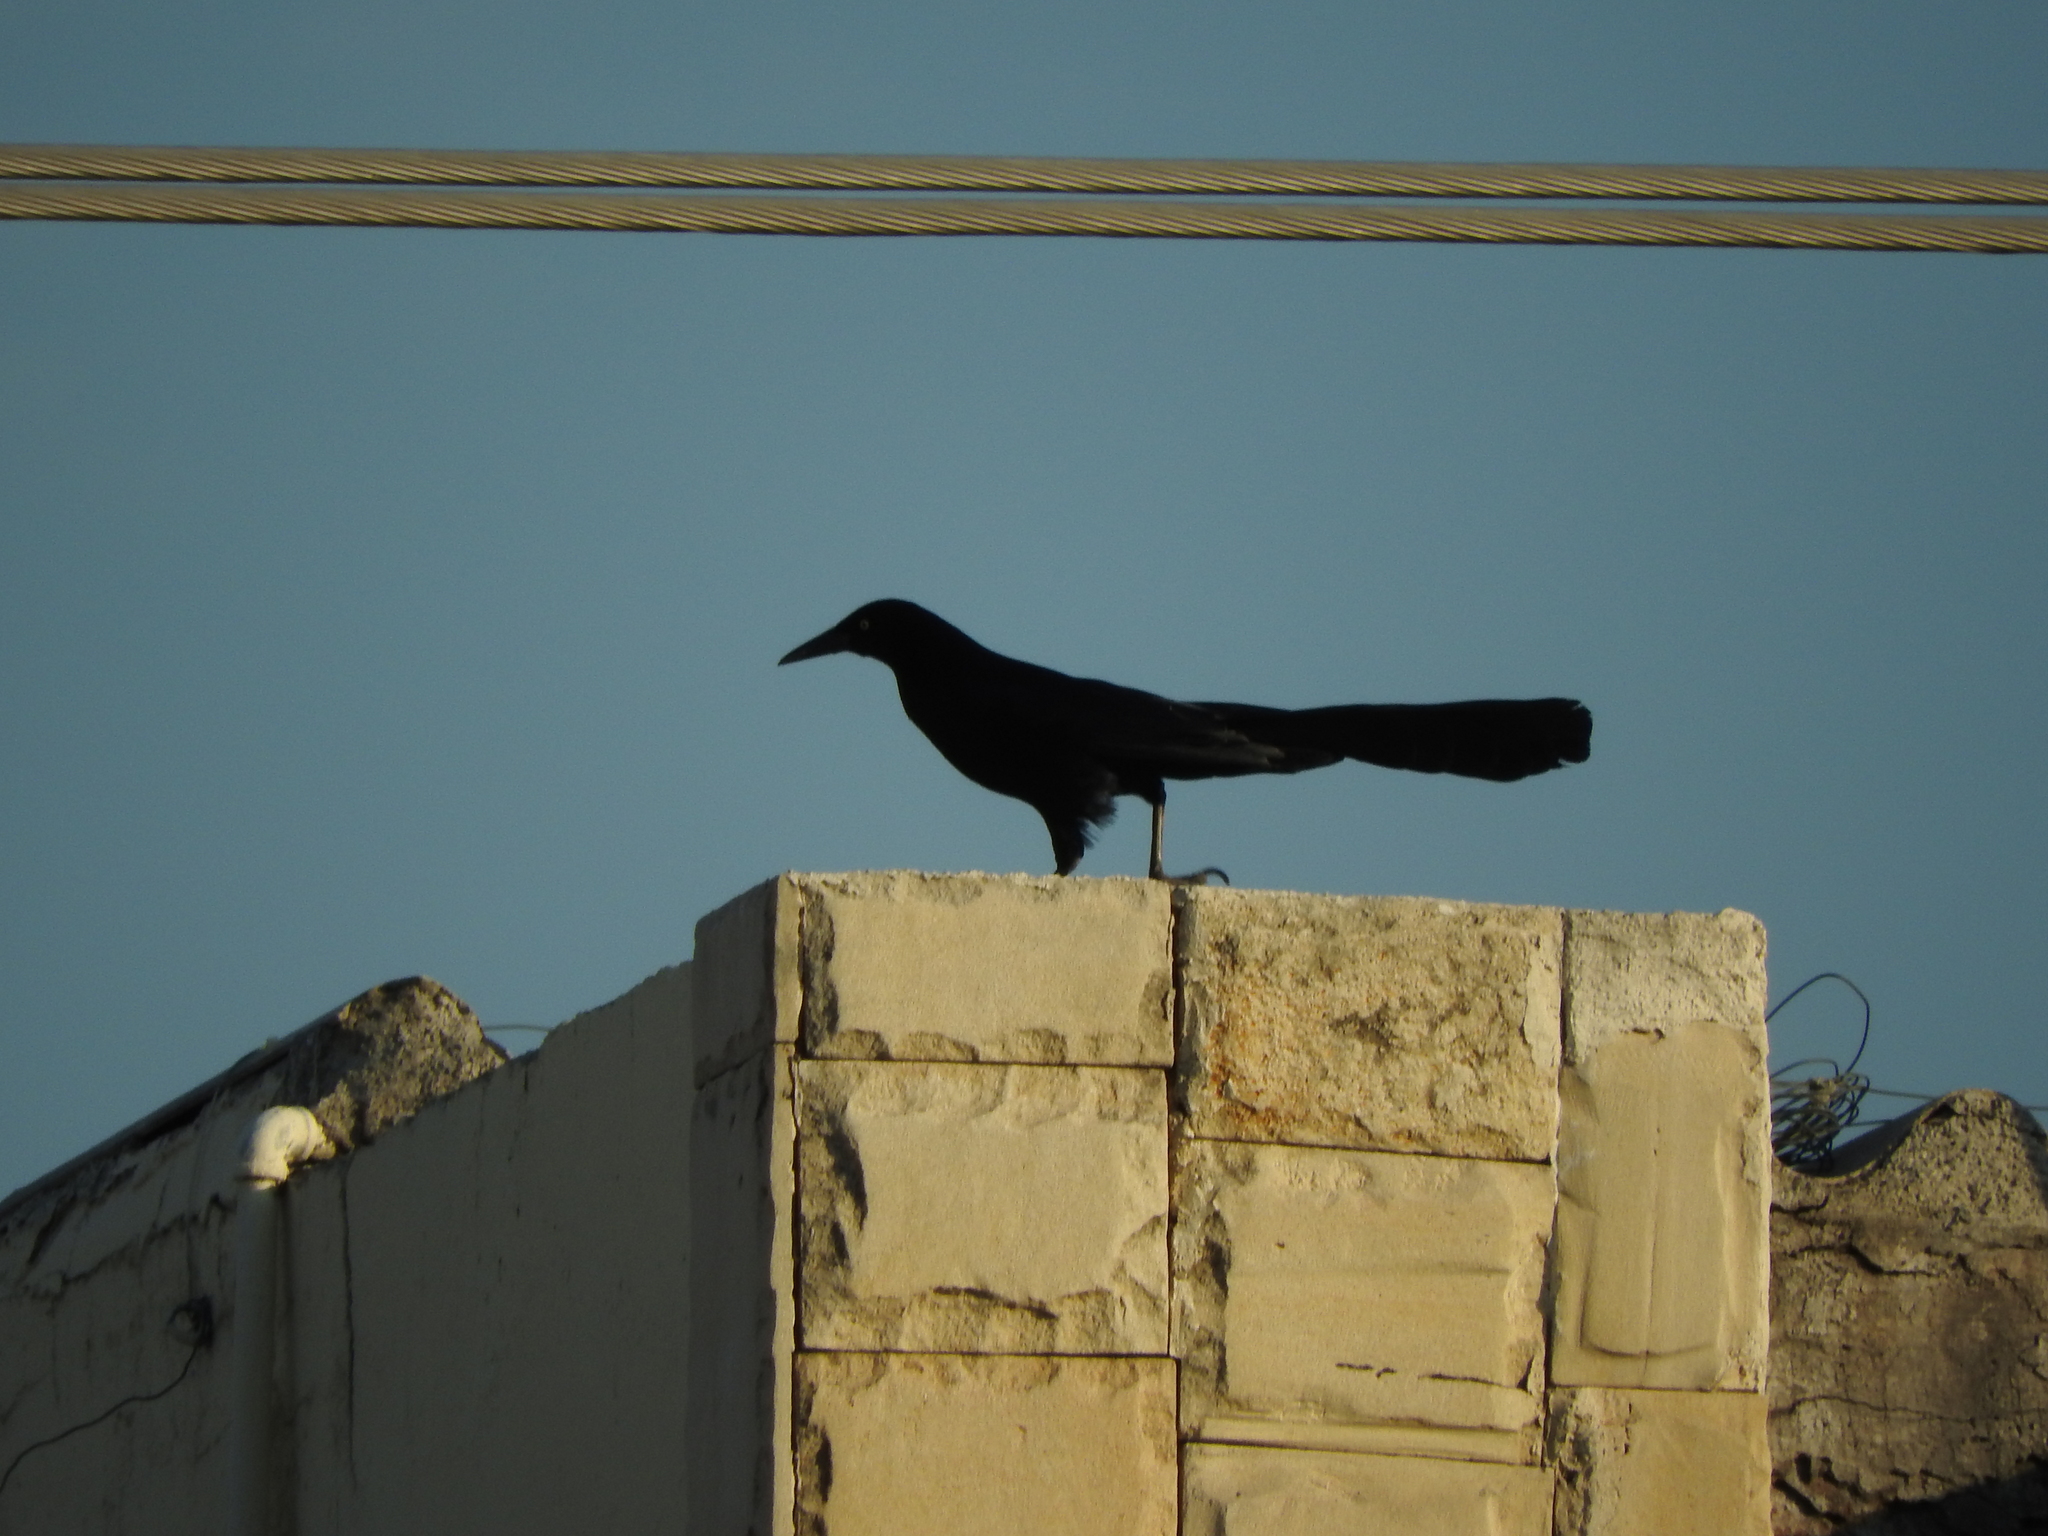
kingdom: Animalia
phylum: Chordata
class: Aves
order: Passeriformes
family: Icteridae
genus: Quiscalus
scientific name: Quiscalus mexicanus
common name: Great-tailed grackle
